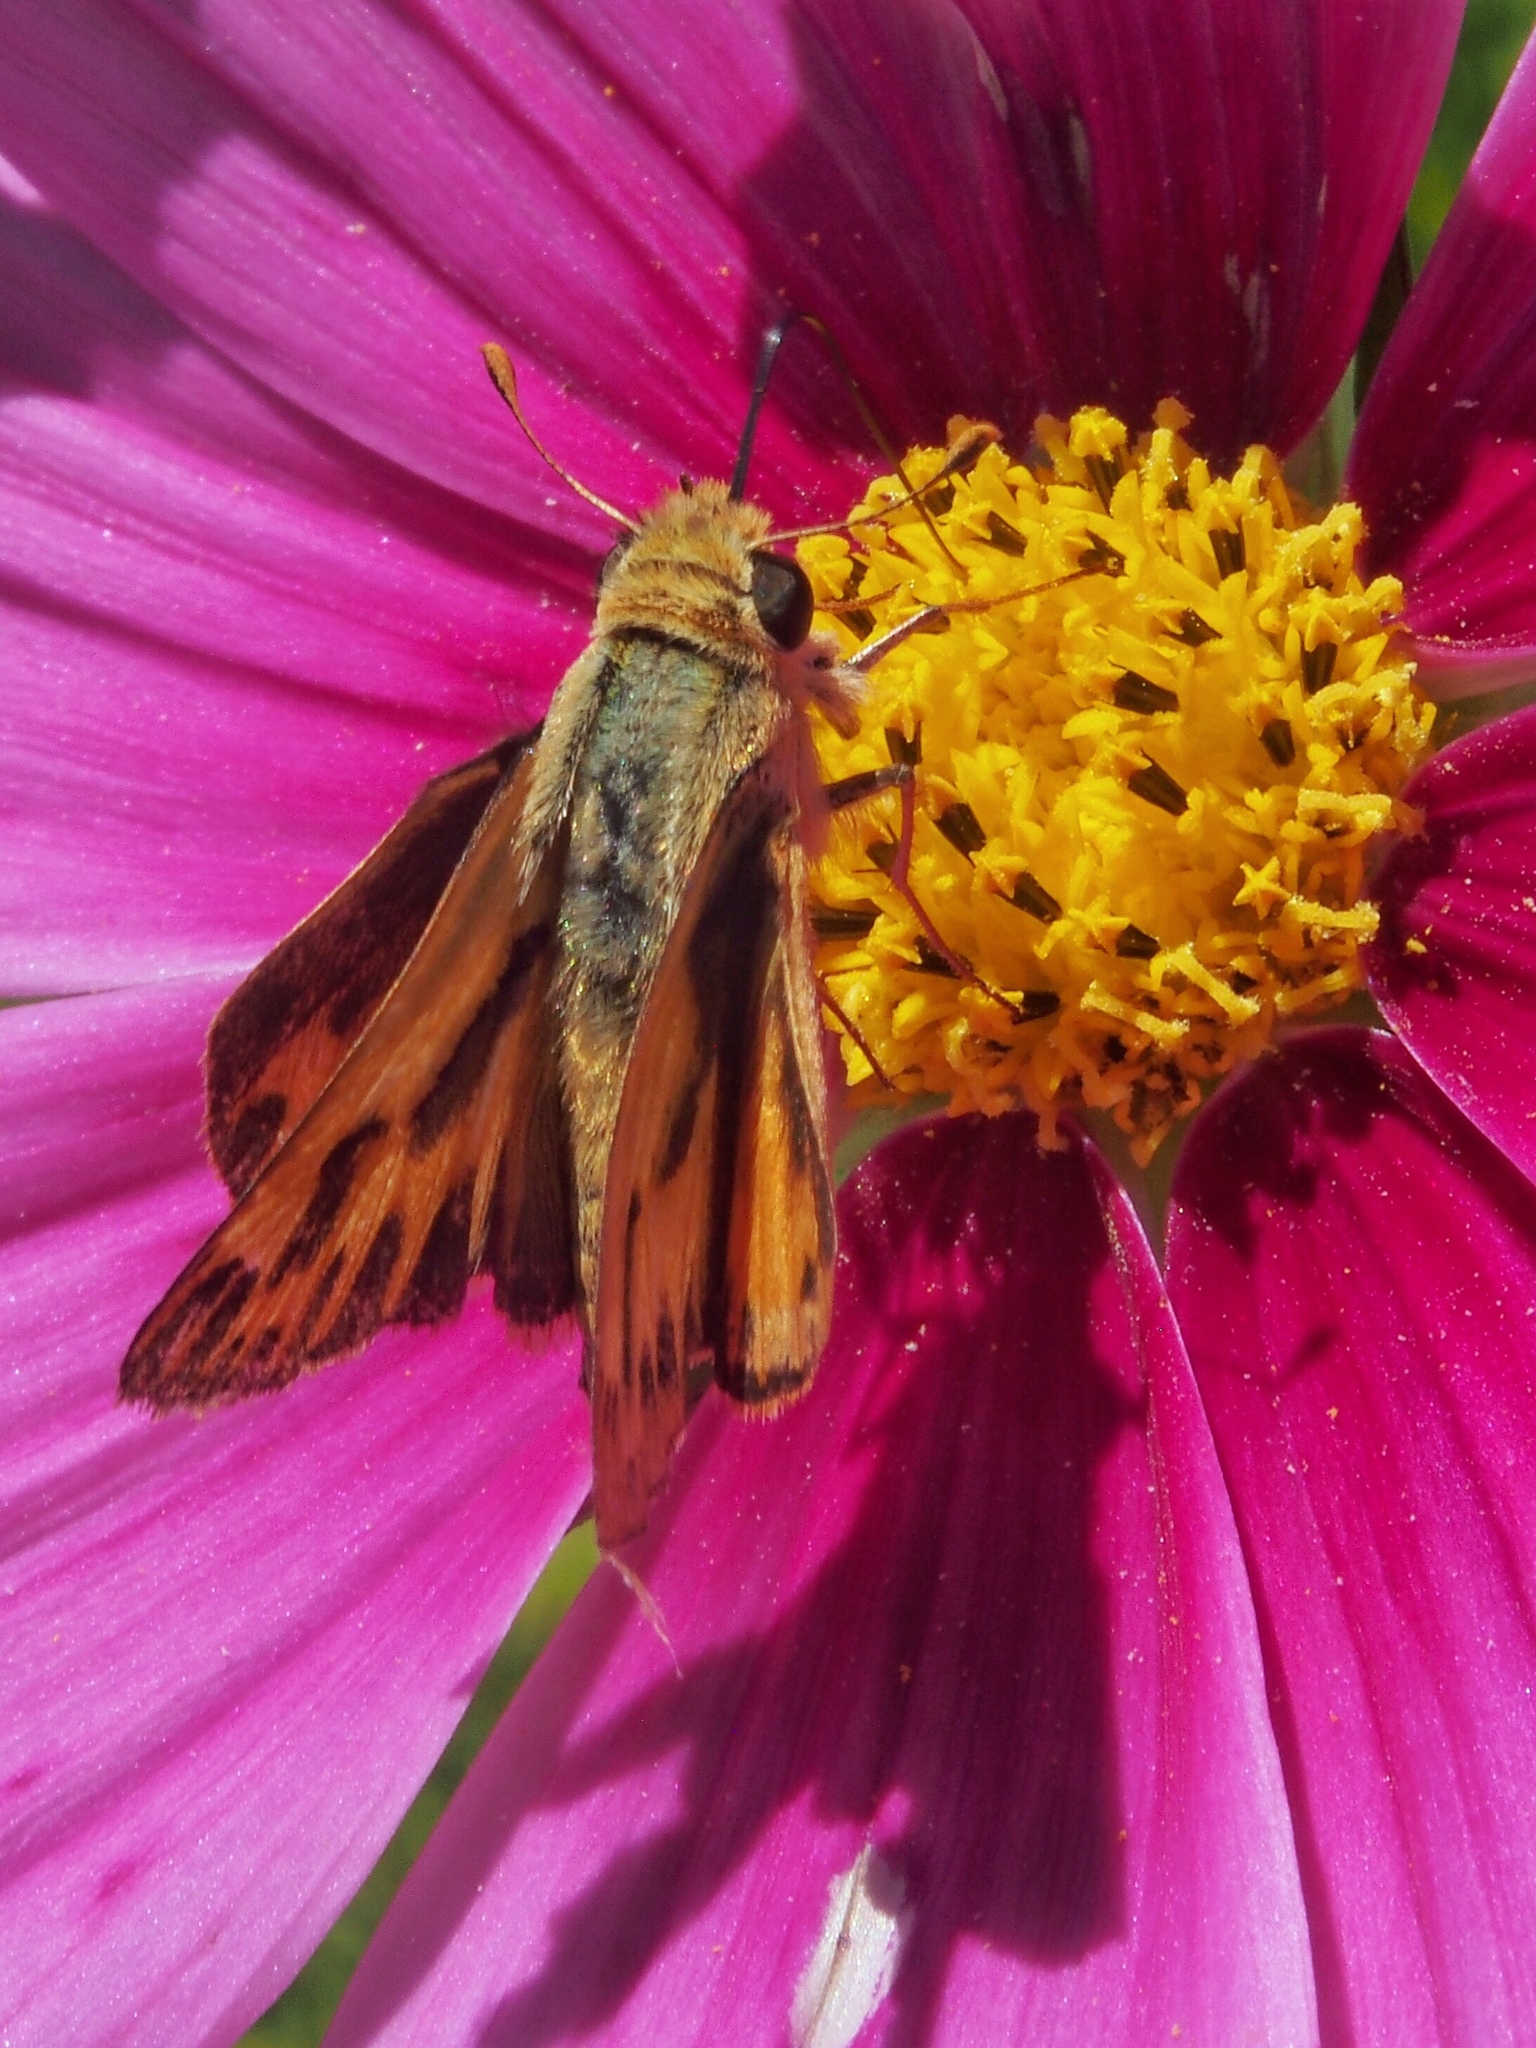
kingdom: Animalia
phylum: Arthropoda
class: Insecta
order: Lepidoptera
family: Hesperiidae
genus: Hylephila
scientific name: Hylephila phyleus
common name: Fiery skipper
